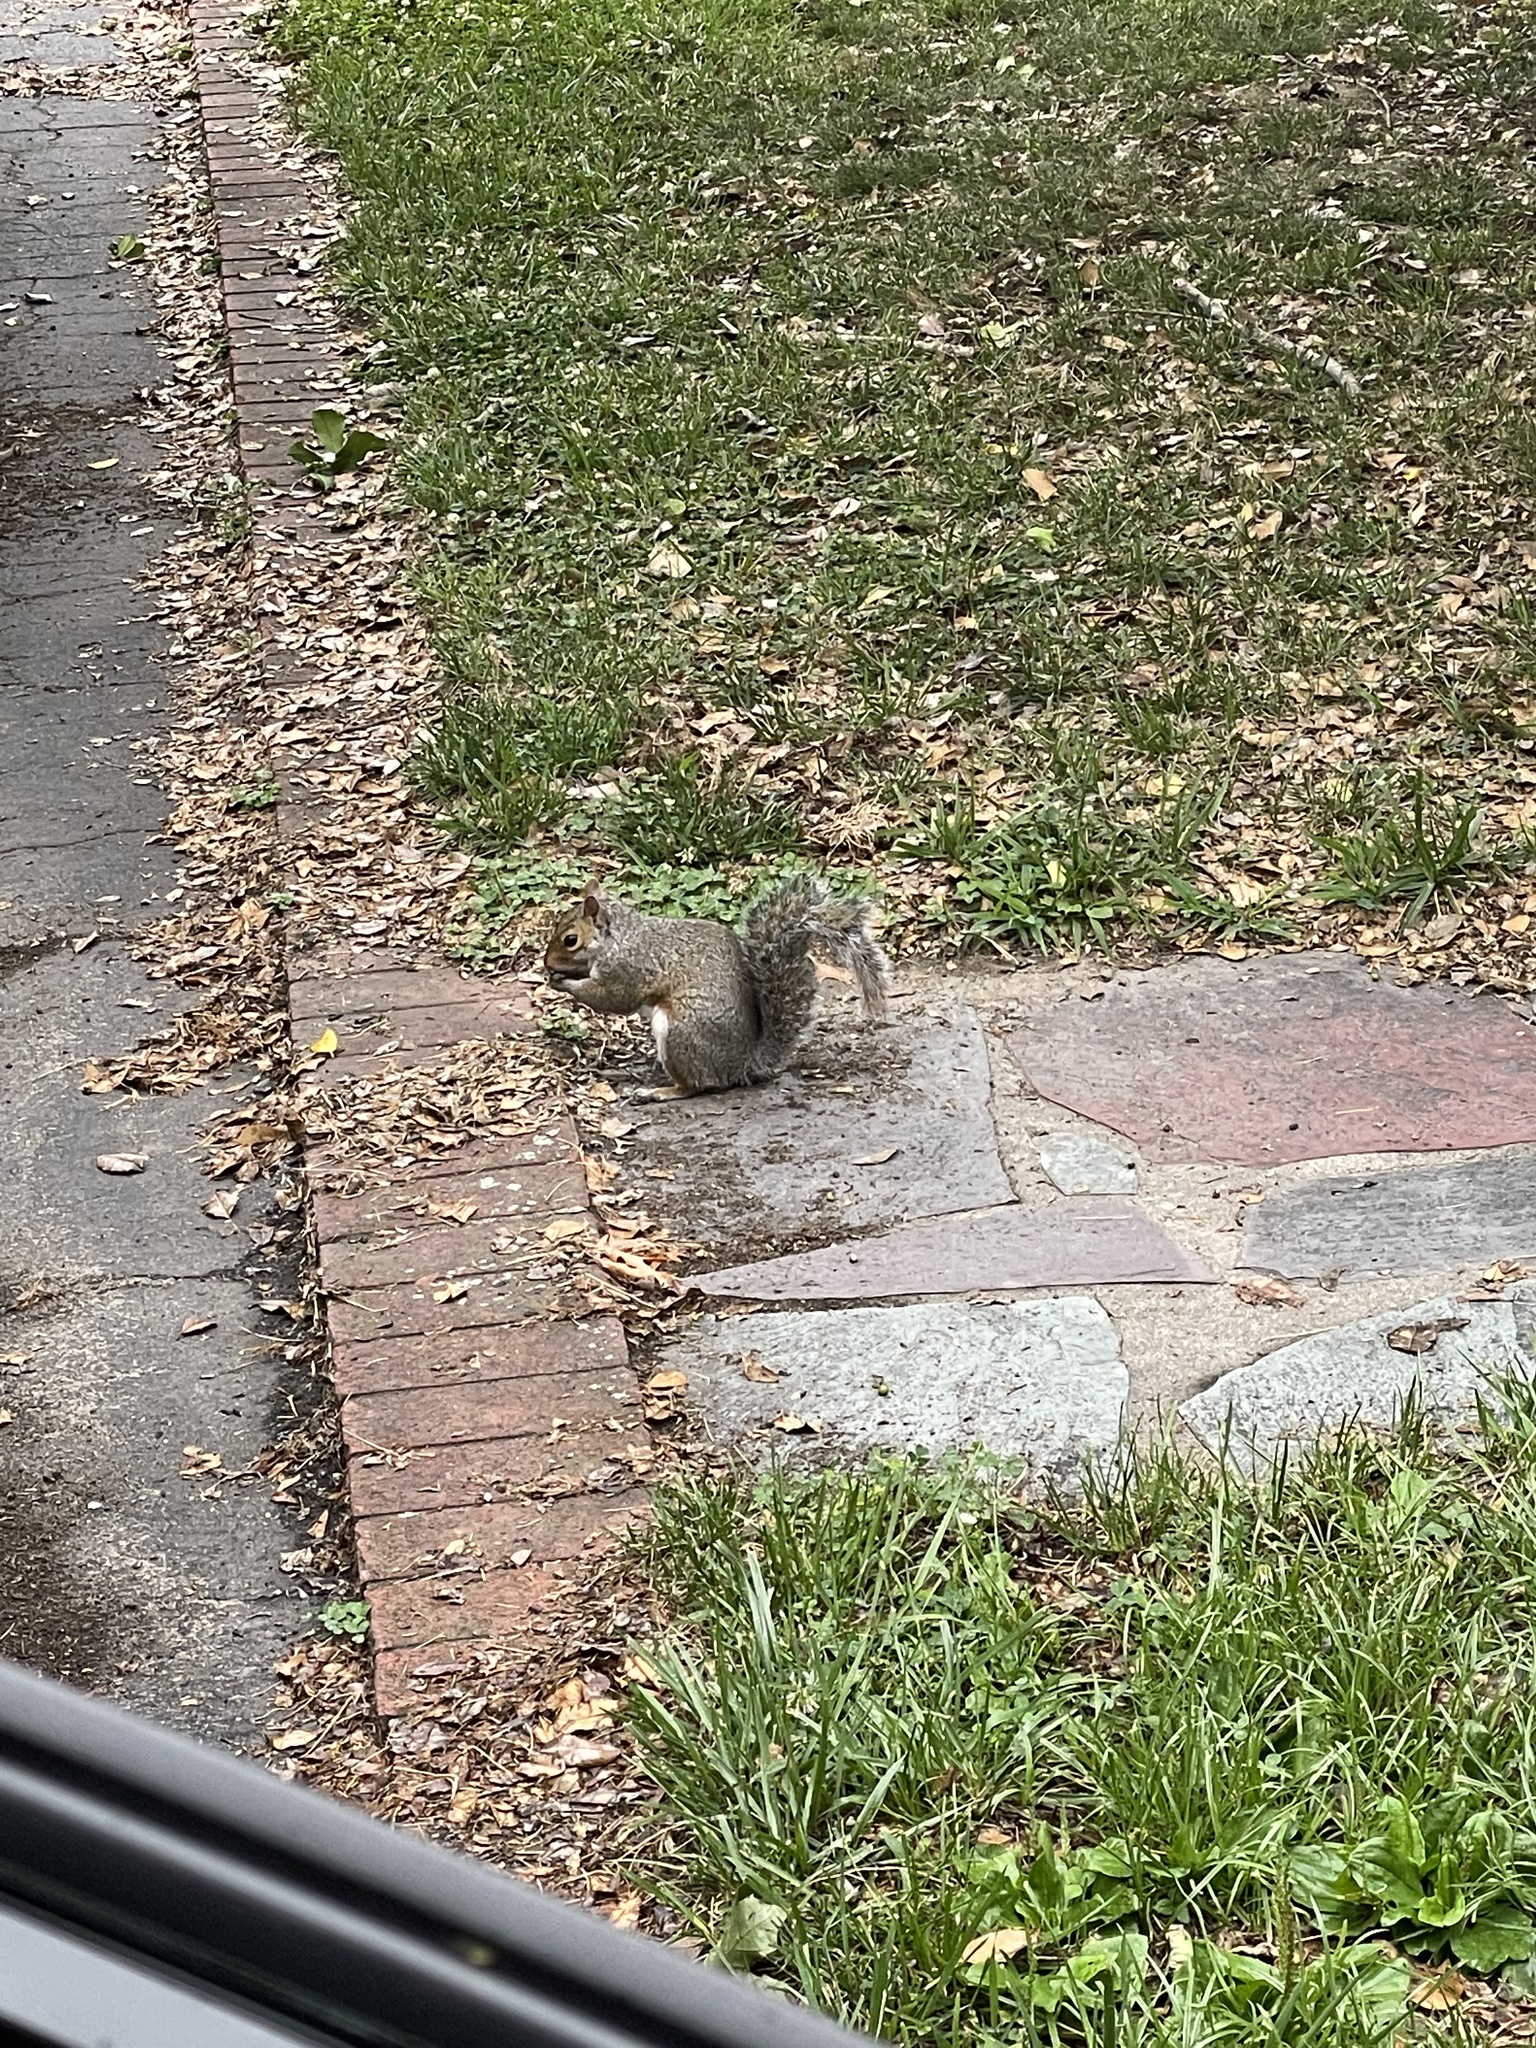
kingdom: Animalia
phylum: Chordata
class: Mammalia
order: Rodentia
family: Sciuridae
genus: Sciurus
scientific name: Sciurus carolinensis
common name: Eastern gray squirrel
